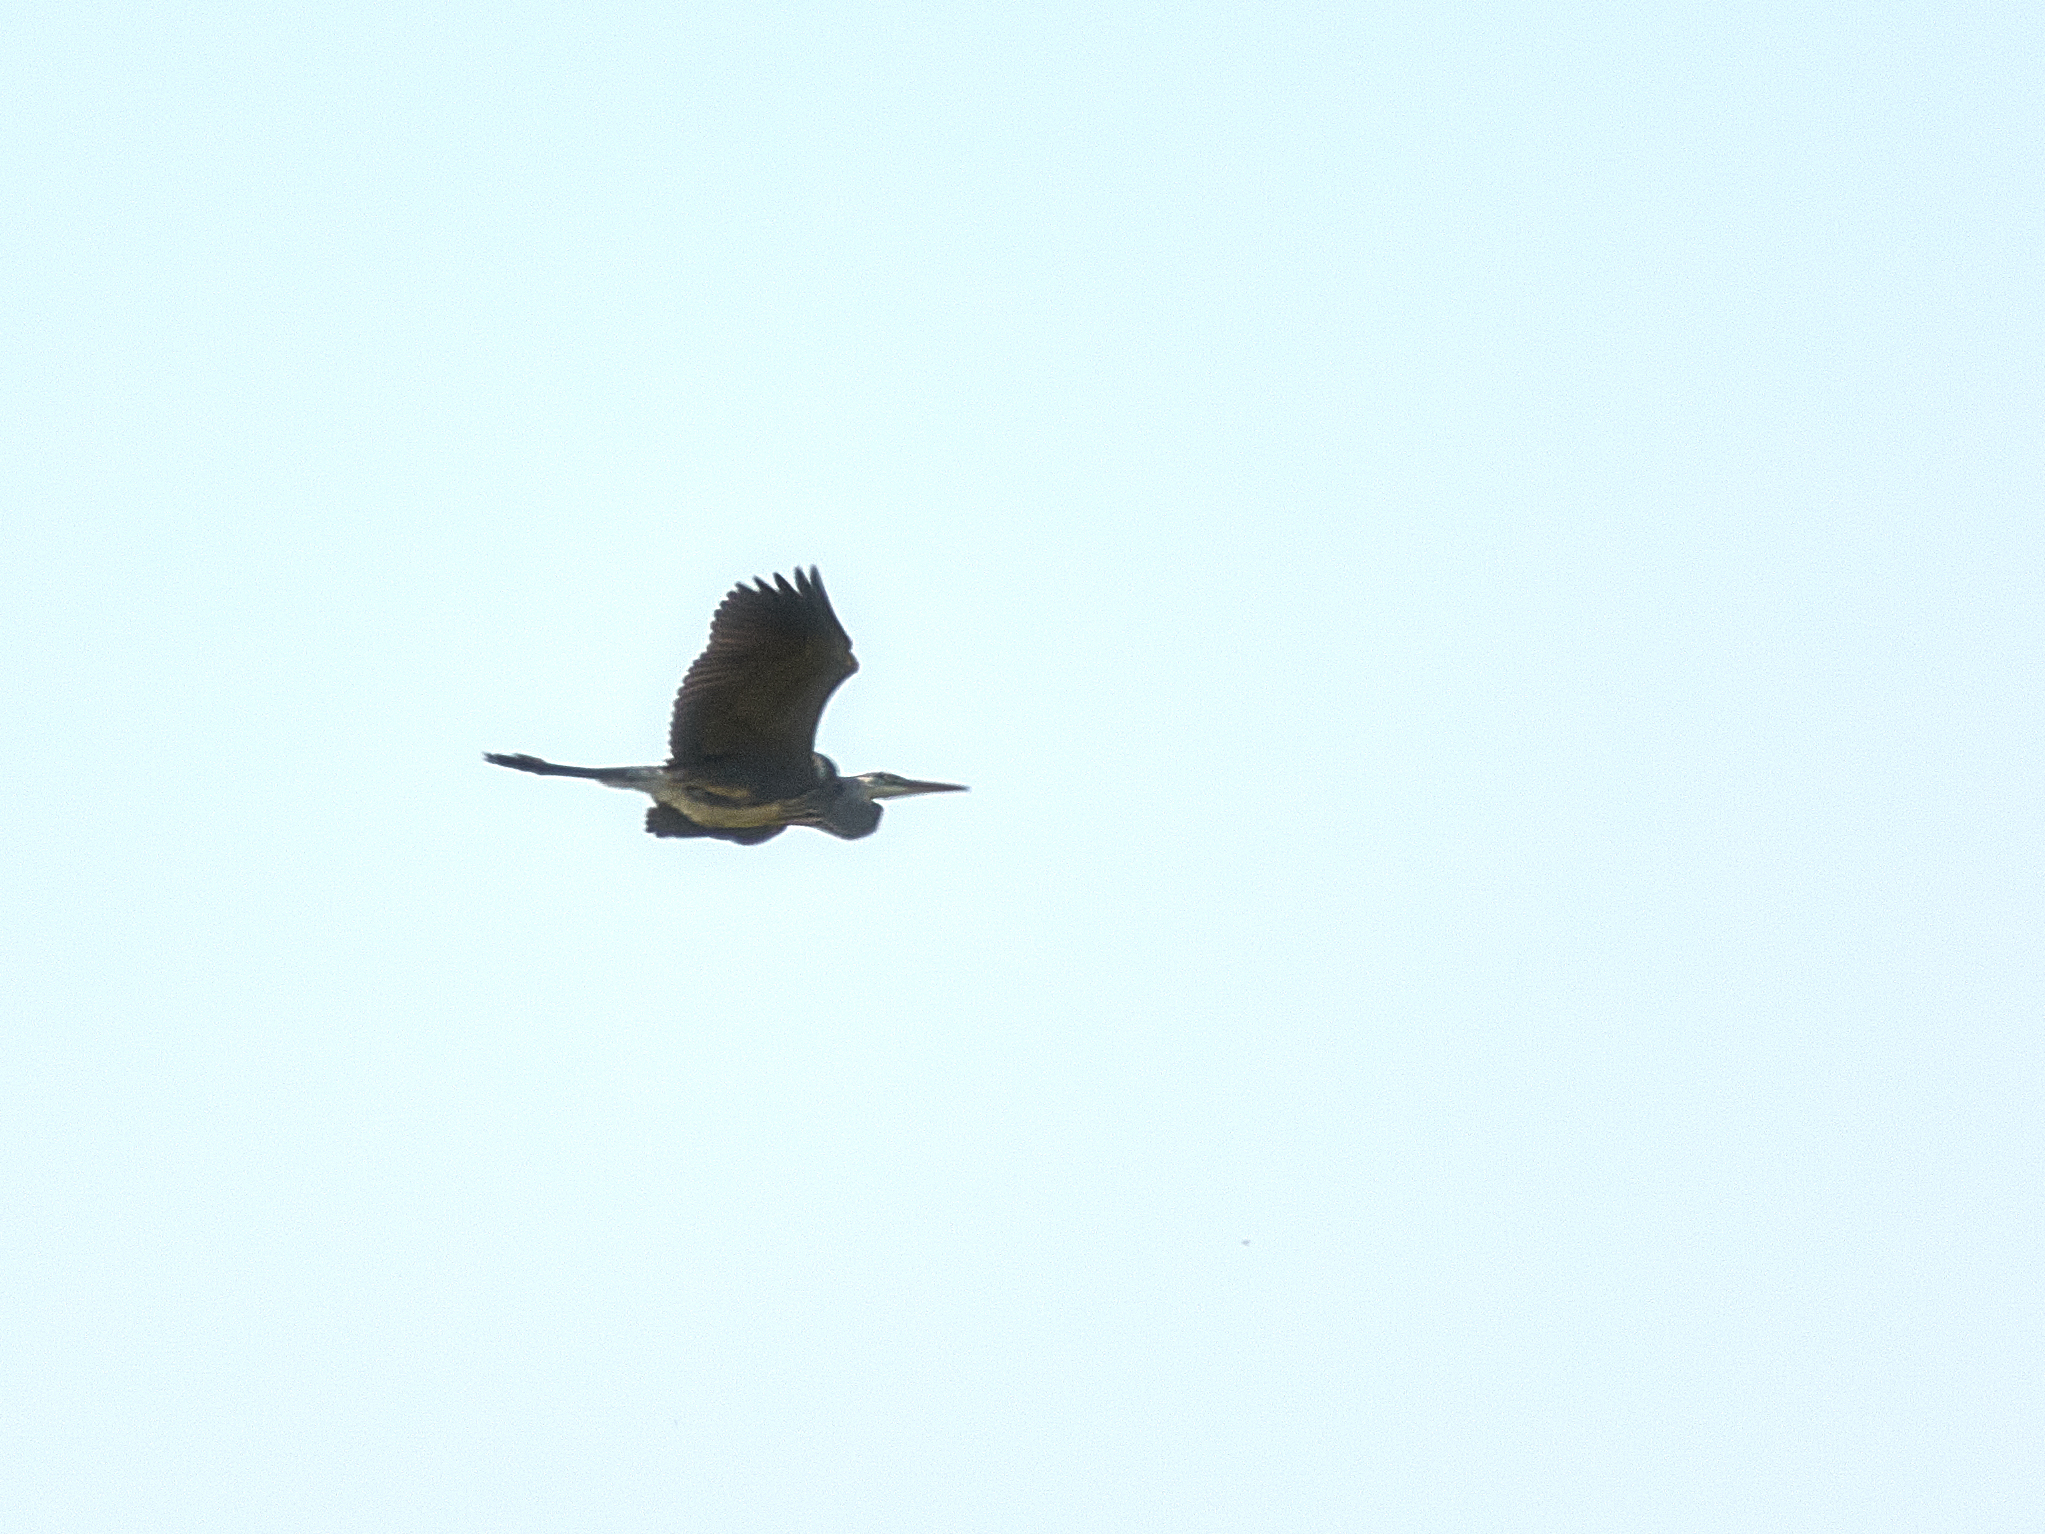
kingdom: Animalia
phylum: Chordata
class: Aves
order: Pelecaniformes
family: Ardeidae
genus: Ardea
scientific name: Ardea cinerea
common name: Grey heron
